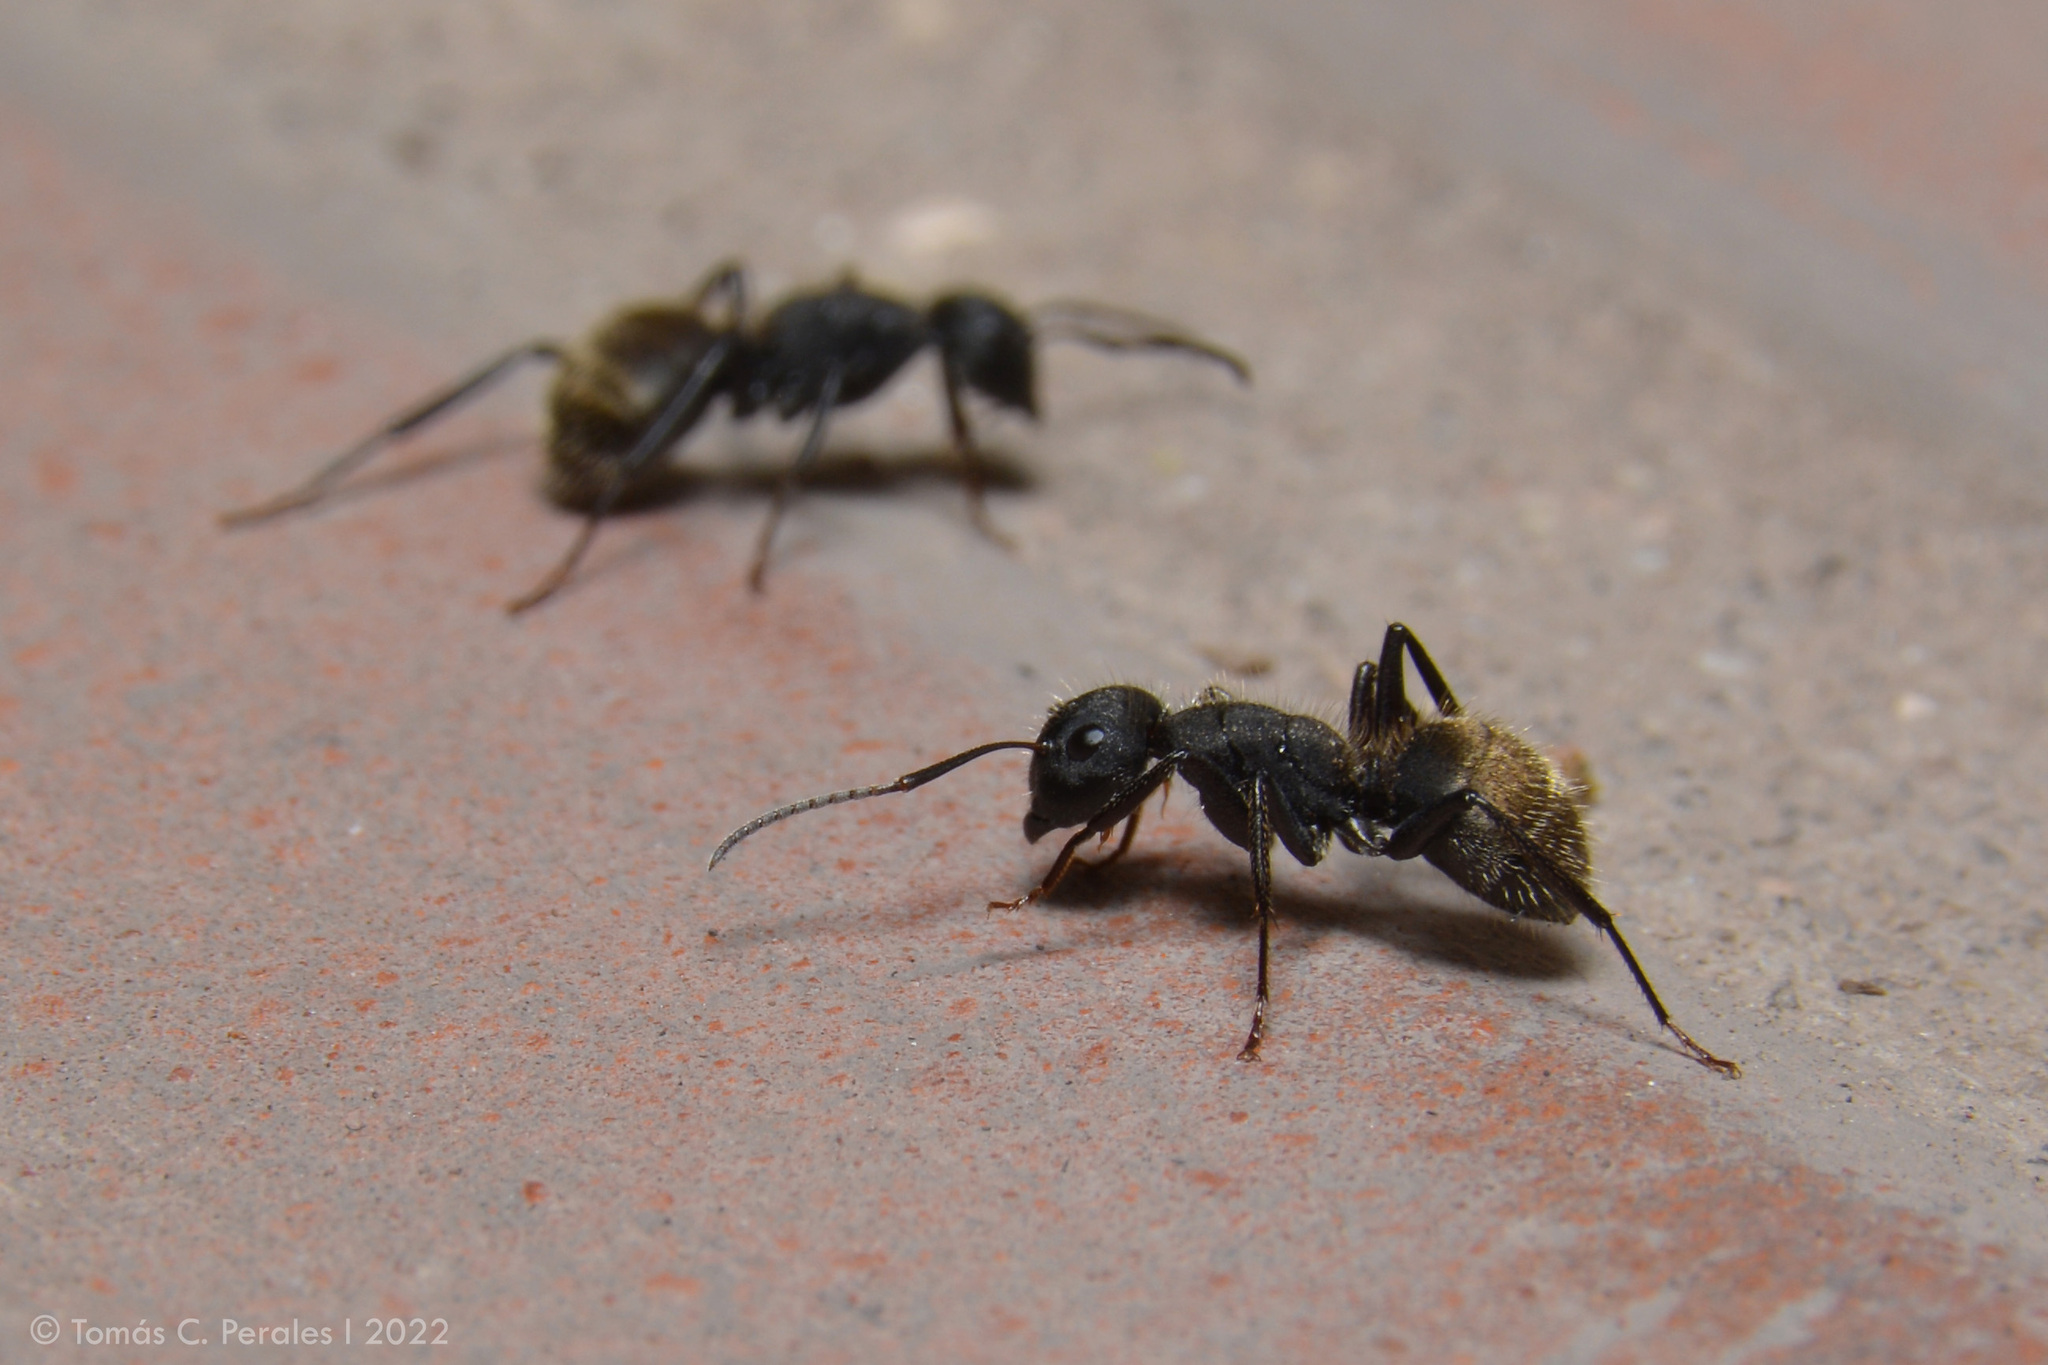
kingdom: Animalia
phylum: Arthropoda
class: Insecta
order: Hymenoptera
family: Formicidae
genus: Camponotus
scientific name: Camponotus mus
